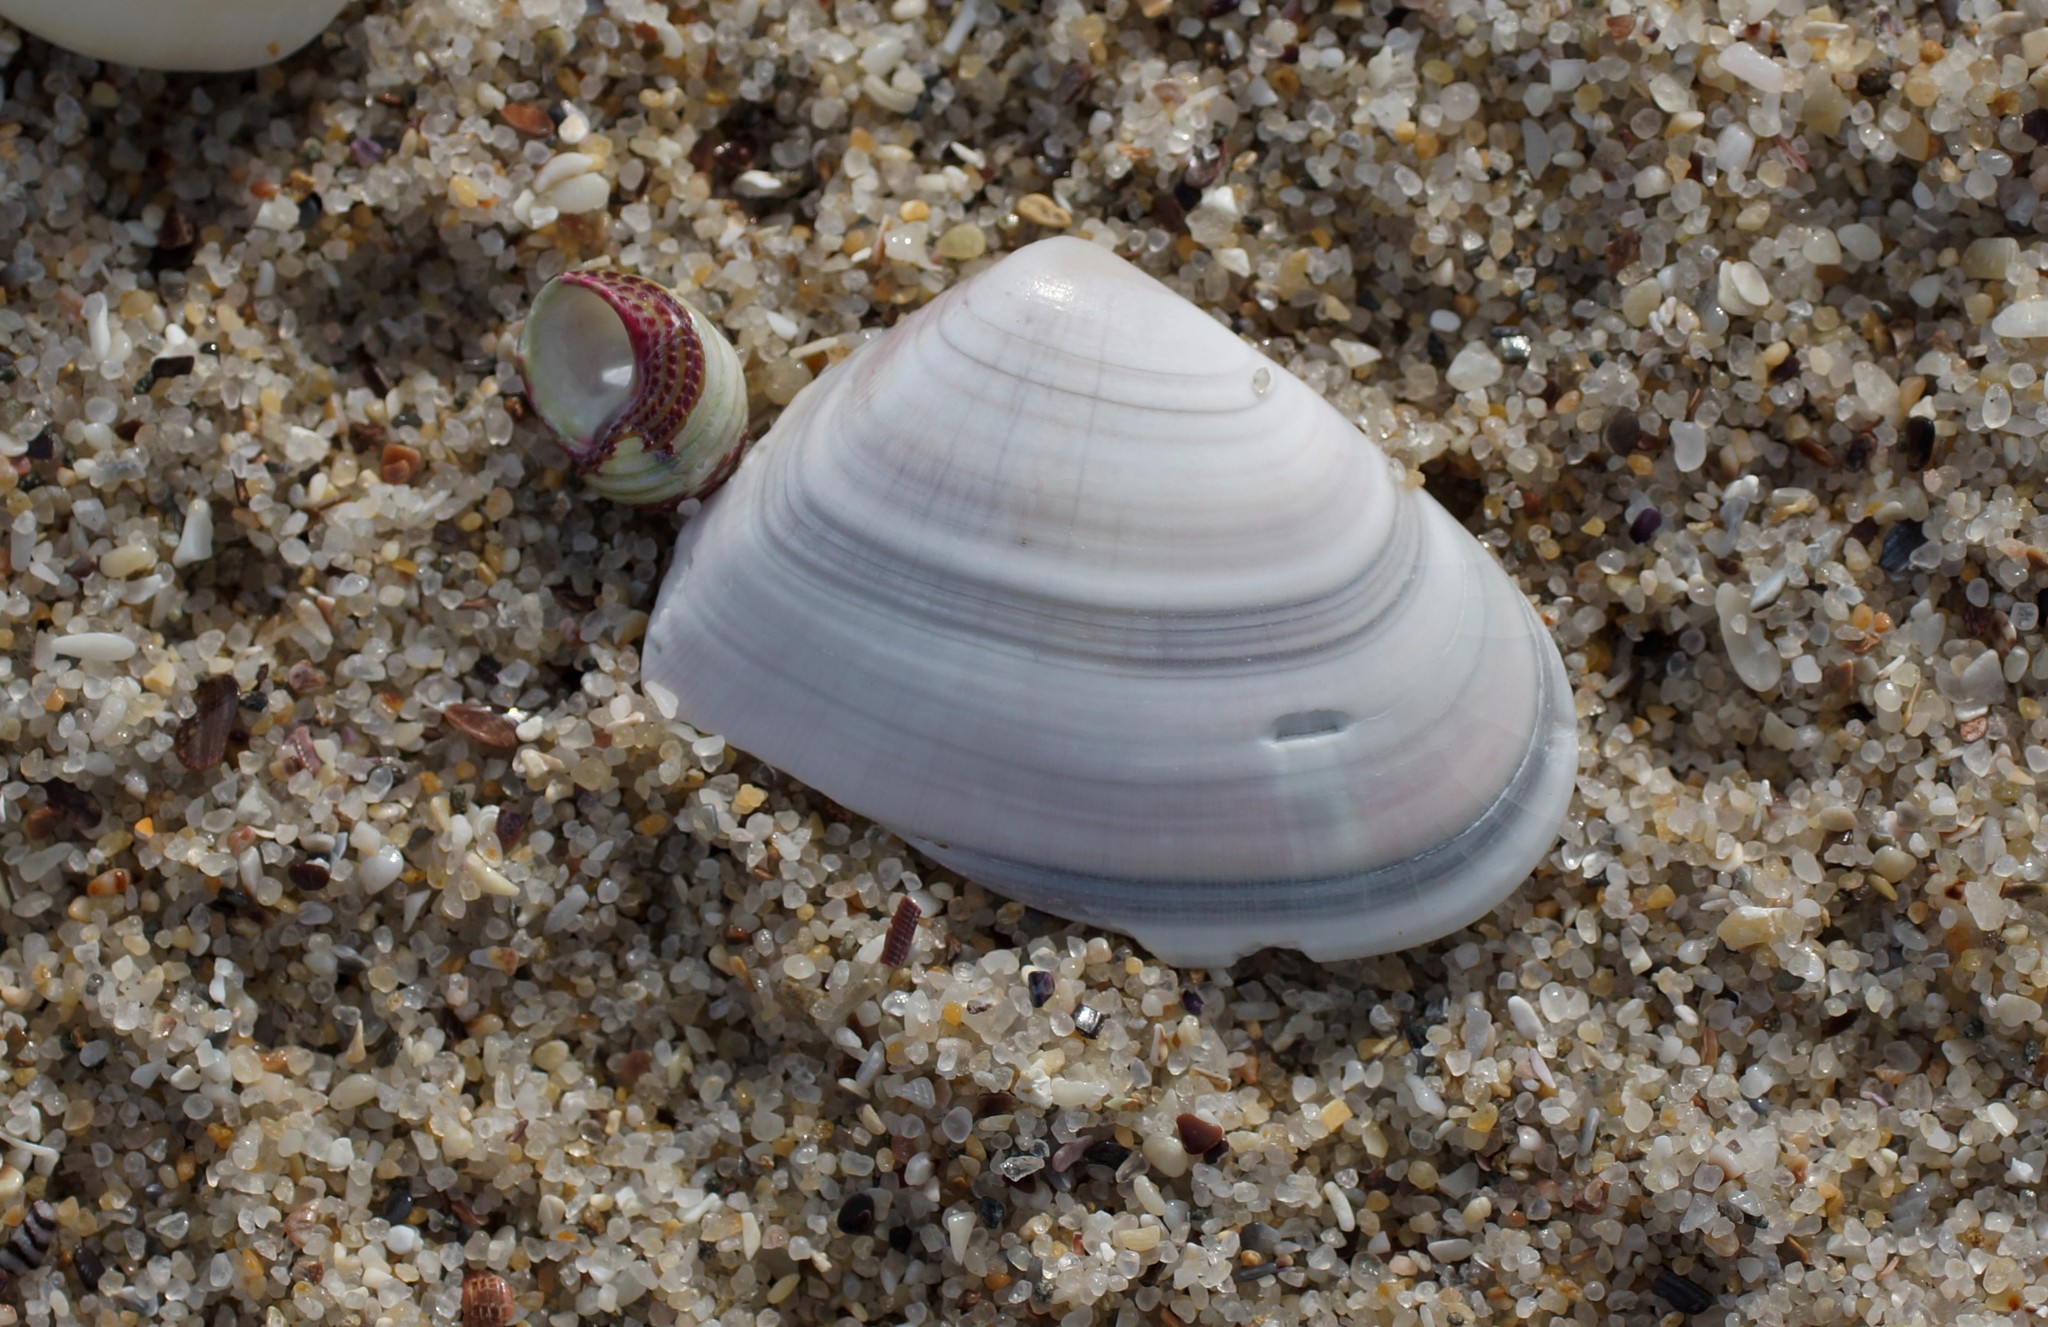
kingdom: Animalia
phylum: Mollusca
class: Bivalvia
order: Cardiida
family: Donacidae
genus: Latona
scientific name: Latona deltoides
